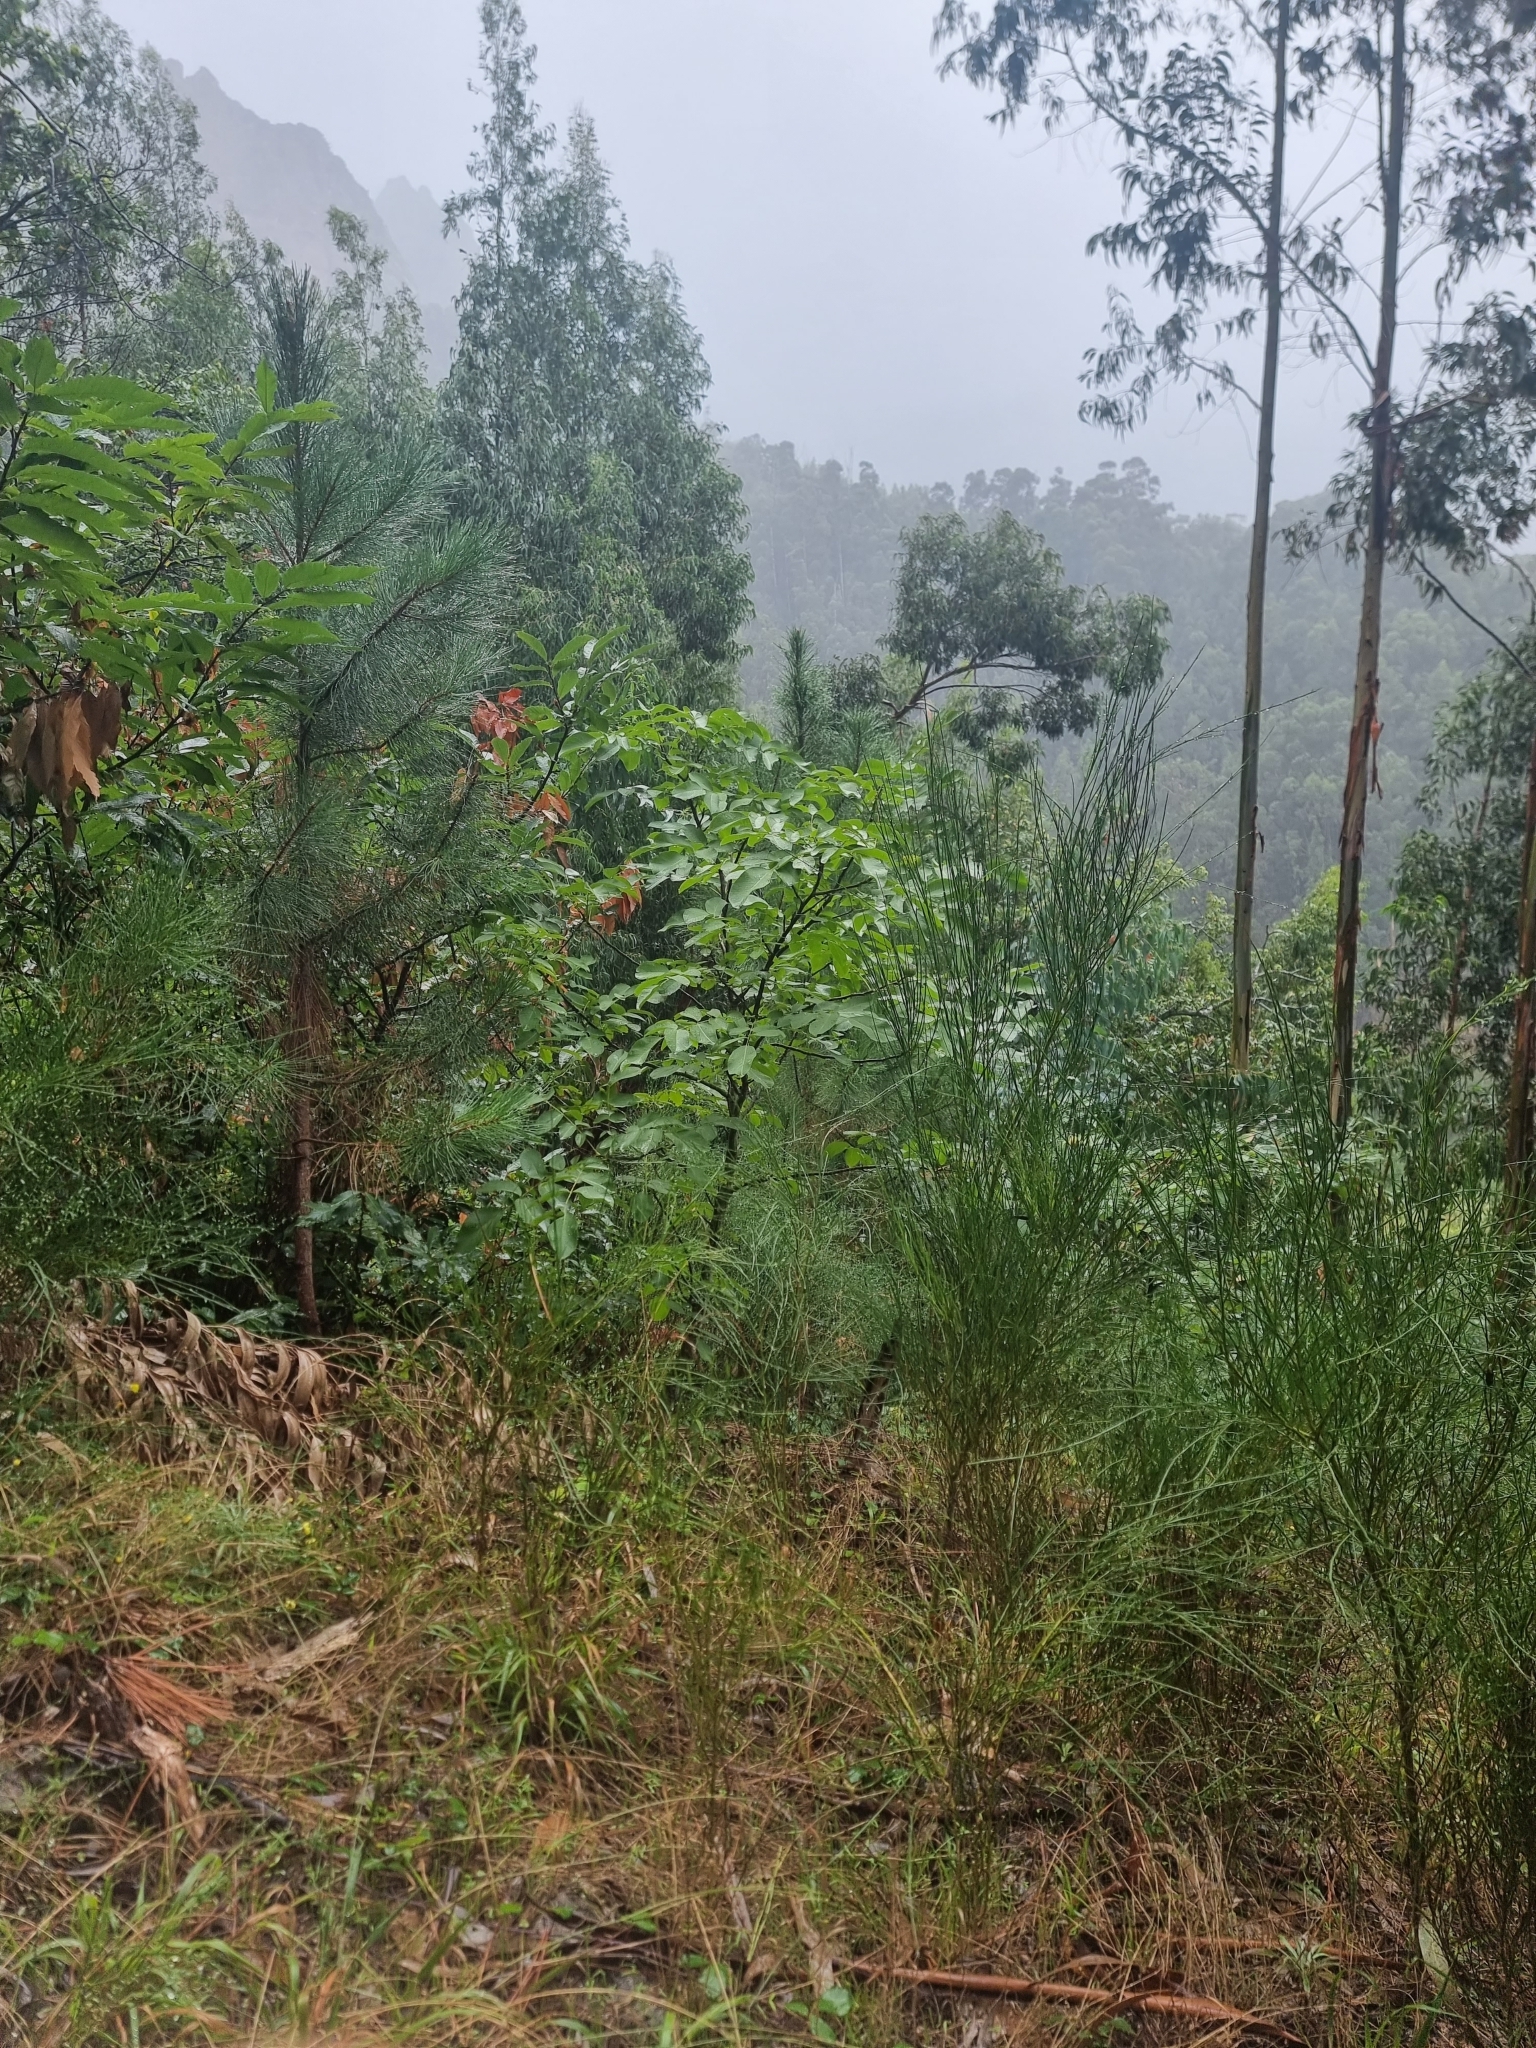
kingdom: Plantae
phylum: Tracheophyta
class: Magnoliopsida
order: Fagales
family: Juglandaceae
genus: Juglans
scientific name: Juglans regia
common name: Walnut
